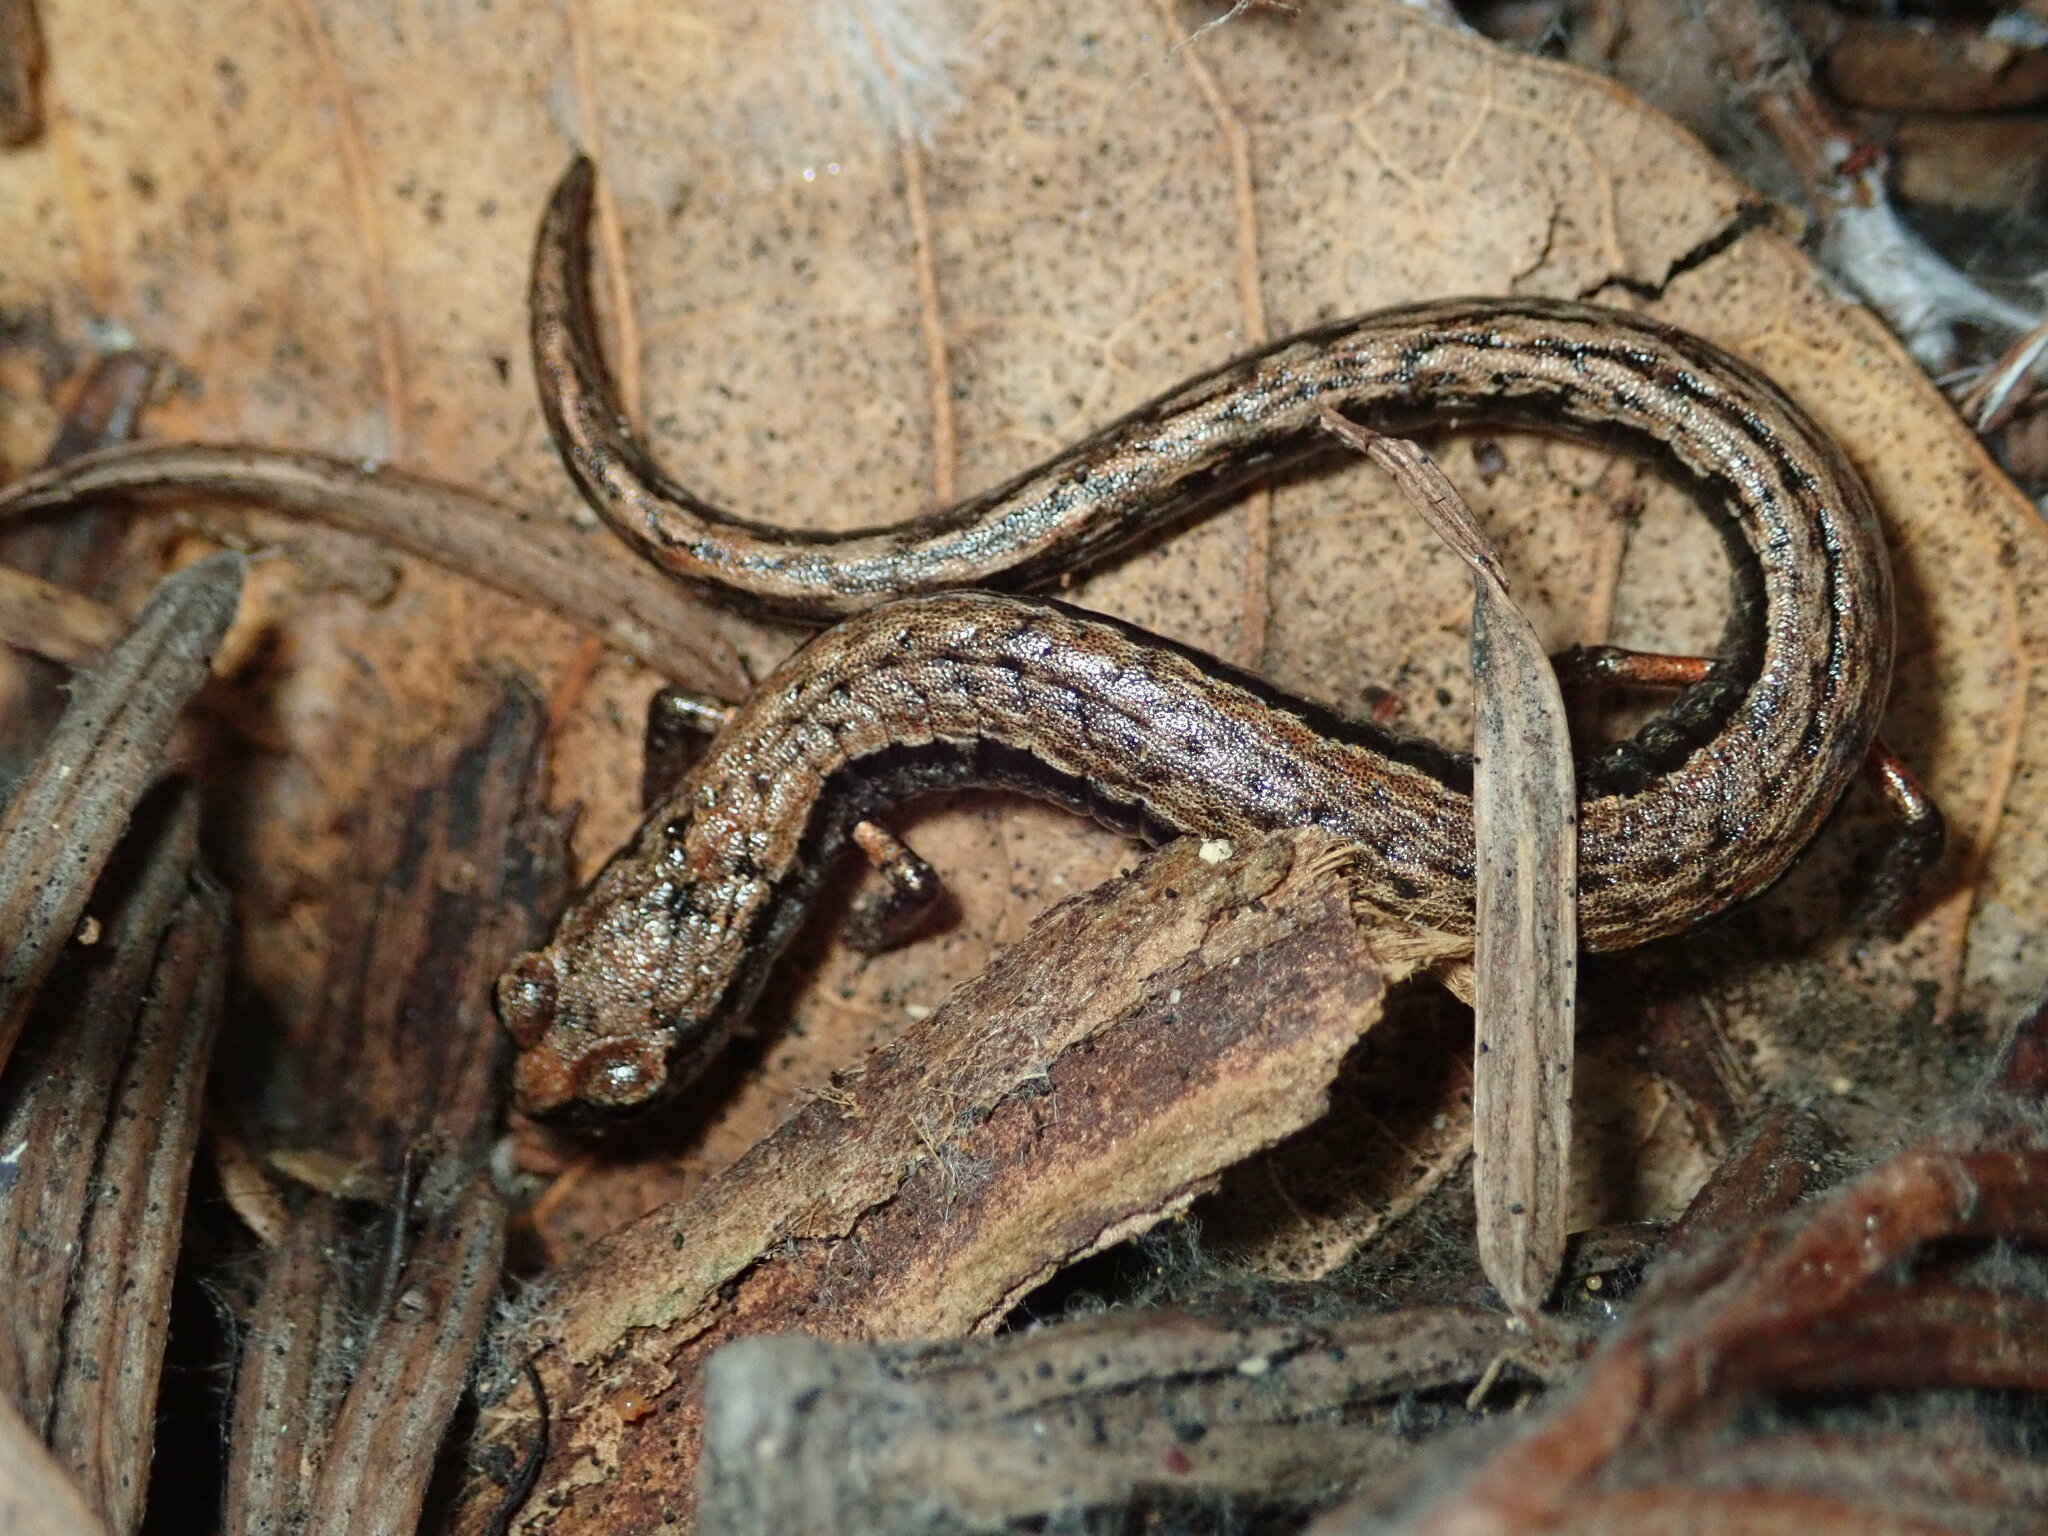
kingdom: Animalia
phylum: Chordata
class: Amphibia
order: Caudata
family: Plethodontidae
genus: Batrachoseps
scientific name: Batrachoseps attenuatus
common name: California slender salamander
